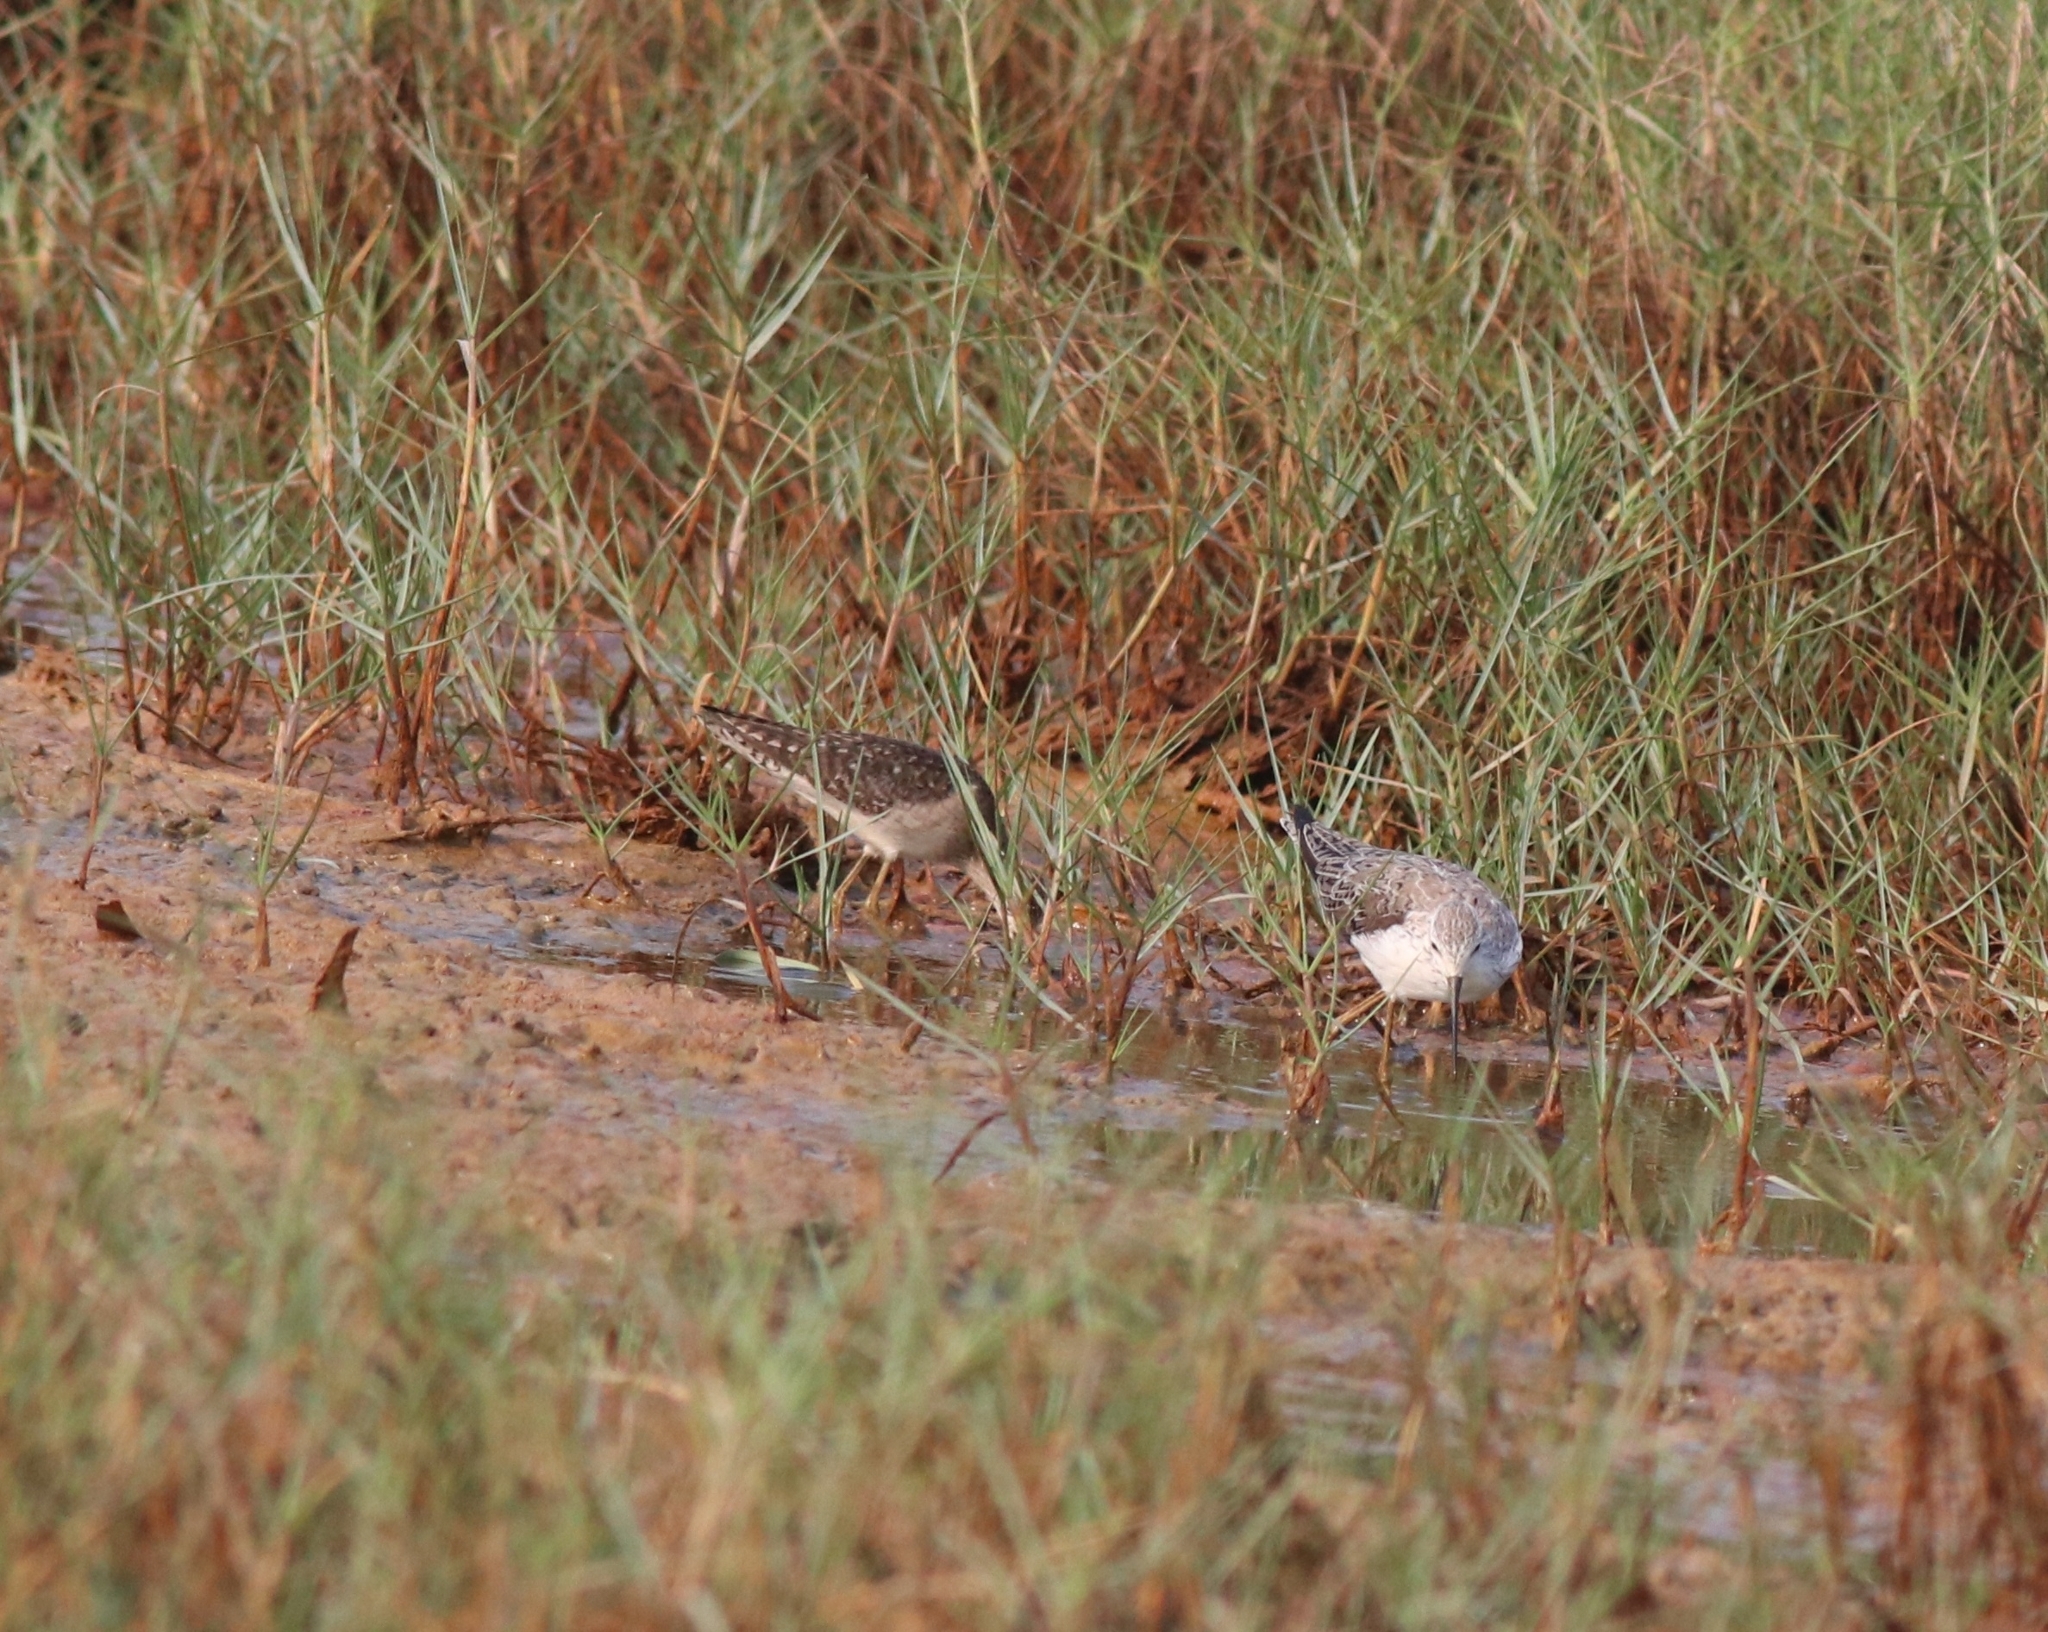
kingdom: Animalia
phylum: Chordata
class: Aves
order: Charadriiformes
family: Scolopacidae
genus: Tringa
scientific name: Tringa glareola
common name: Wood sandpiper
